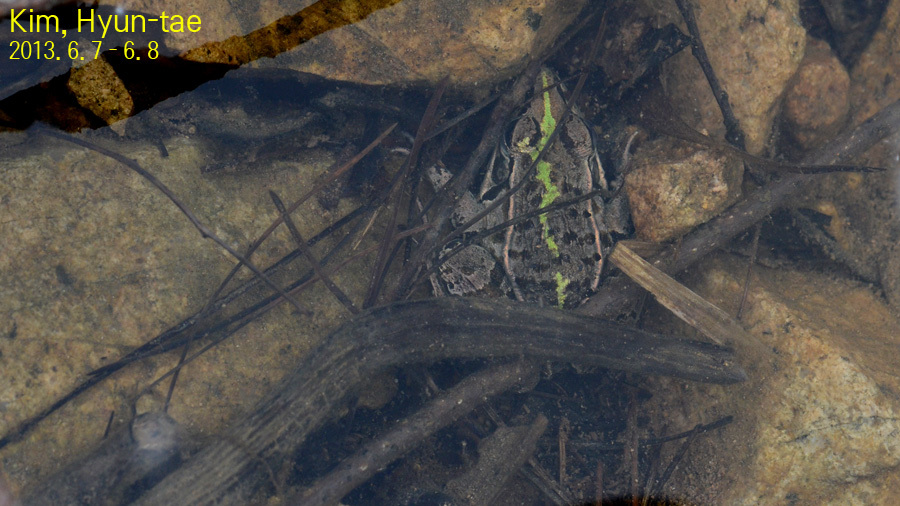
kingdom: Animalia
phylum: Chordata
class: Amphibia
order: Anura
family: Ranidae
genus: Pelophylax
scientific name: Pelophylax nigromaculatus
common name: Black-spotted pond frog
